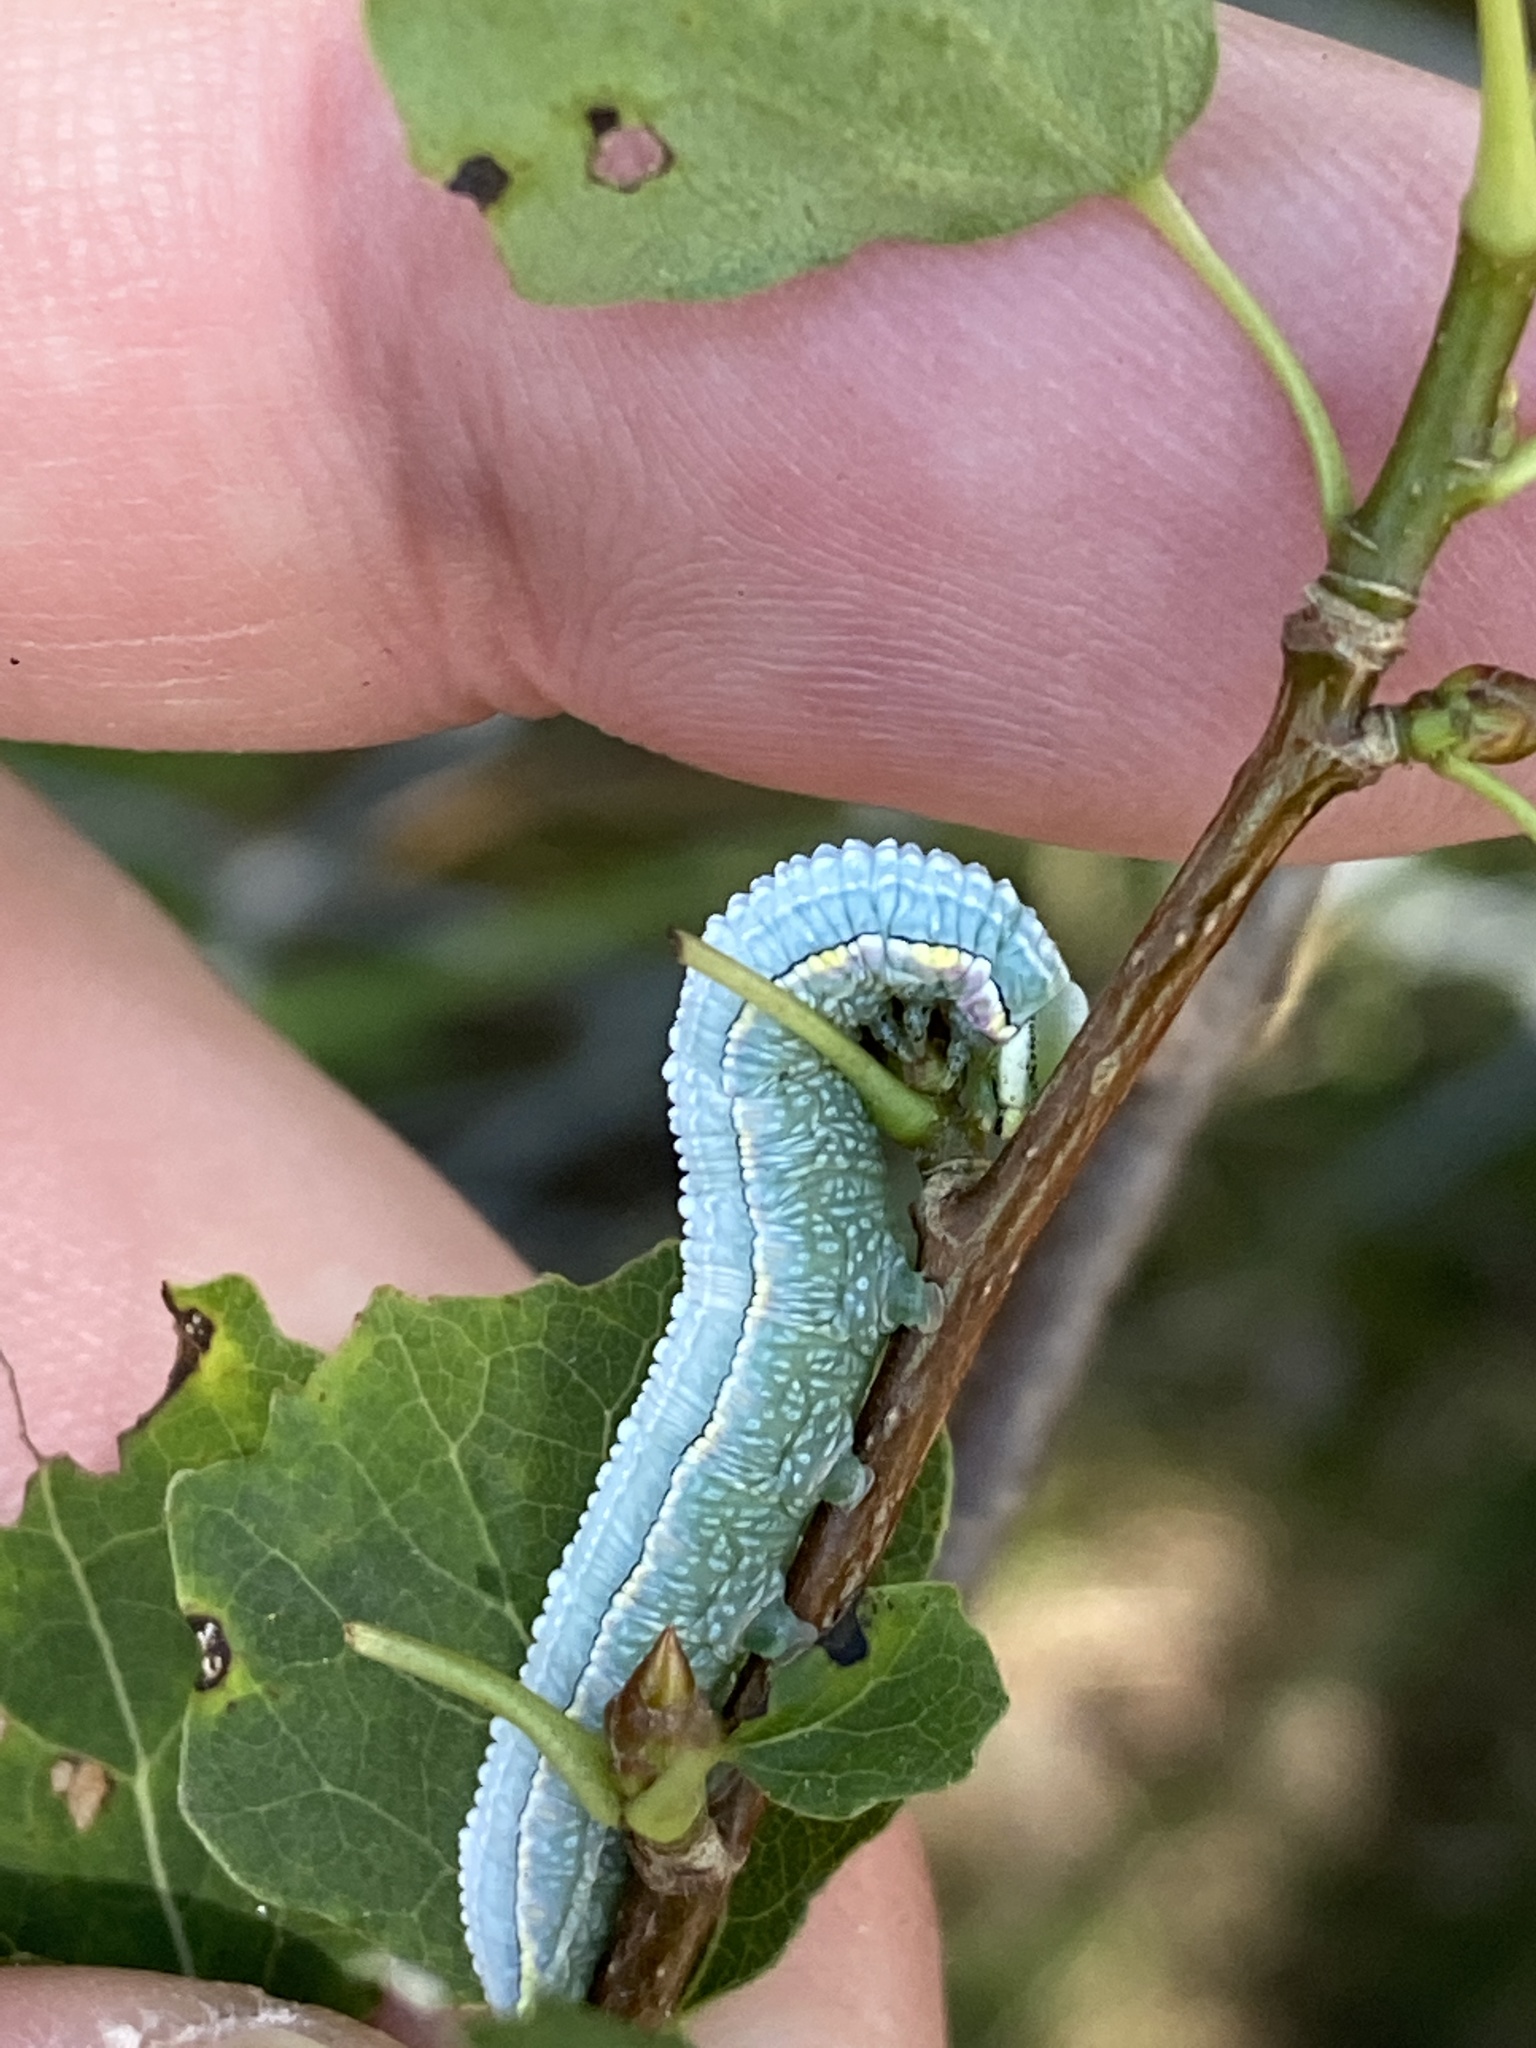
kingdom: Animalia
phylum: Arthropoda
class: Insecta
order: Lepidoptera
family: Notodontidae
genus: Pterostoma
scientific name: Pterostoma palpina
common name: Pale prominent
